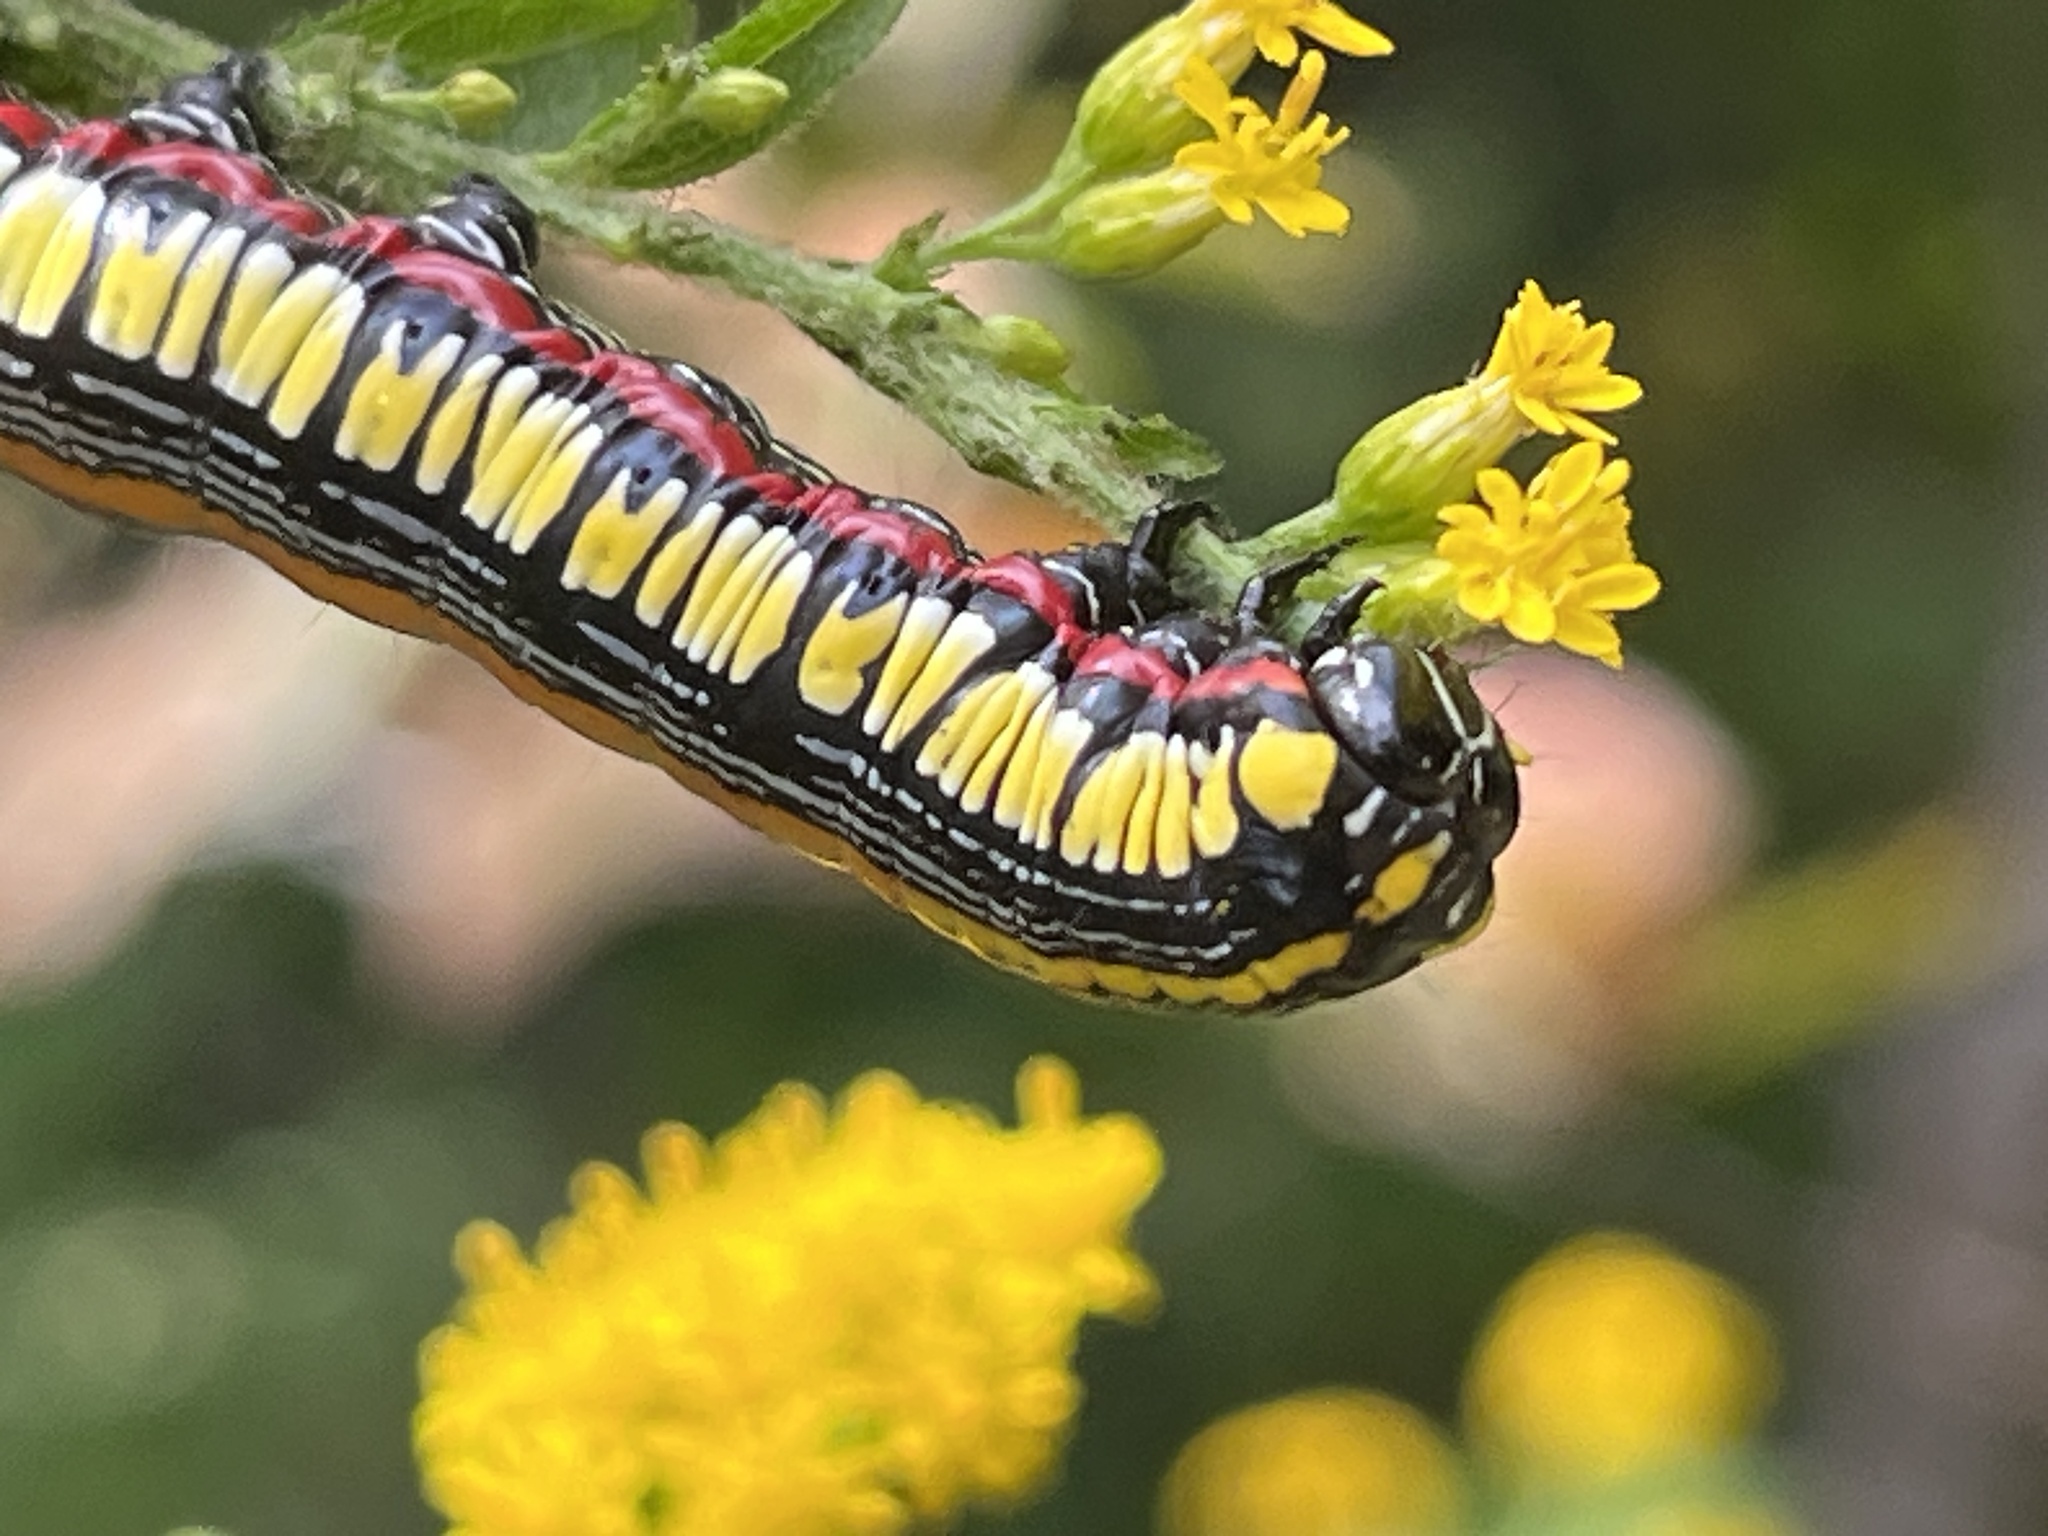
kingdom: Animalia
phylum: Arthropoda
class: Insecta
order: Lepidoptera
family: Noctuidae
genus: Cucullia
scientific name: Cucullia convexipennis
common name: Brown-hooded owlet
